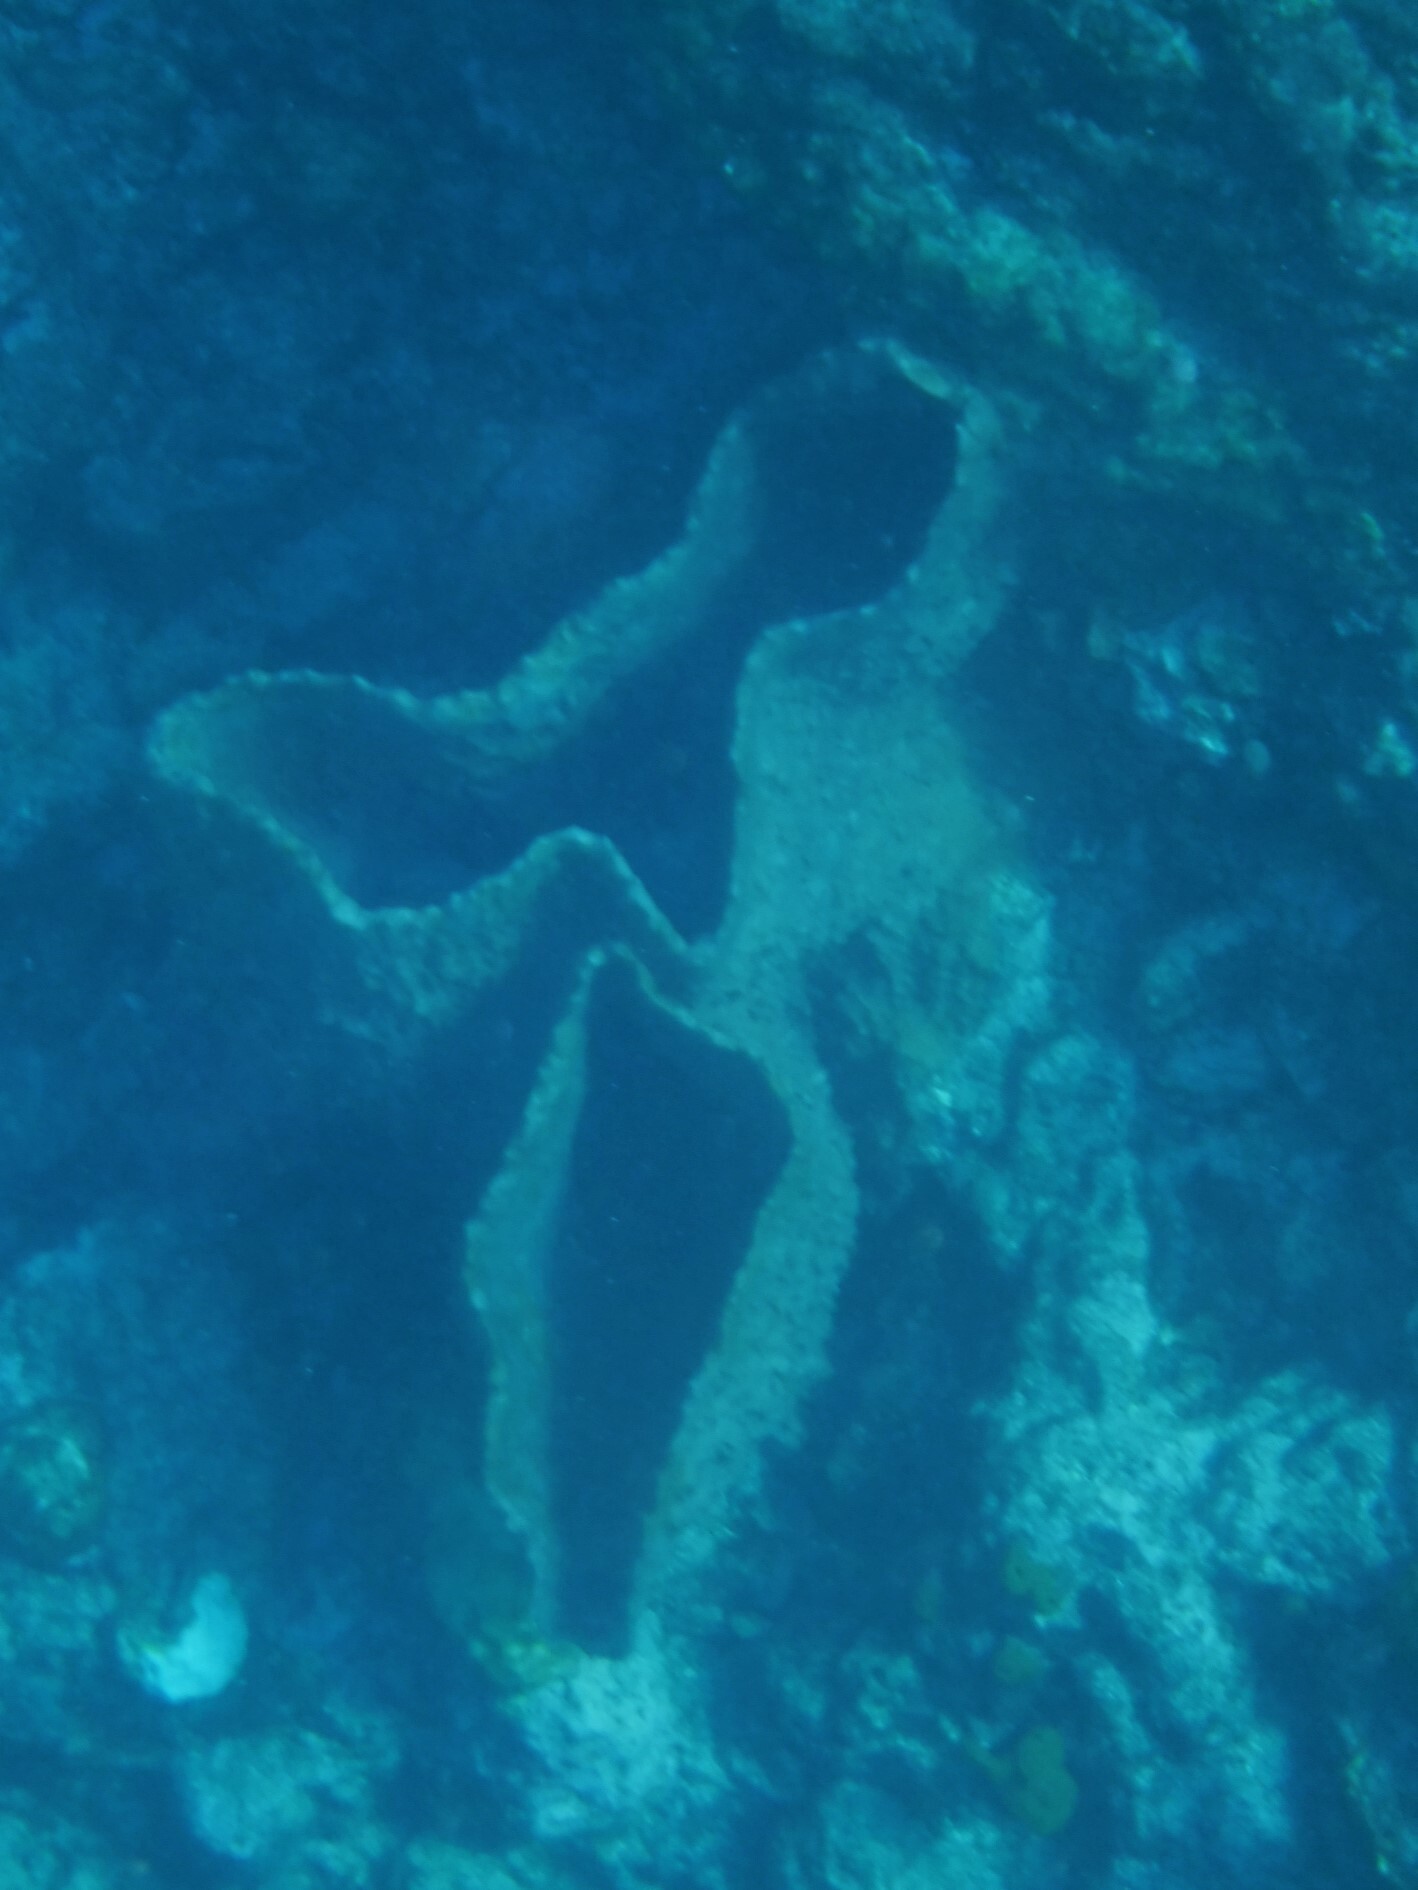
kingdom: Animalia
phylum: Porifera
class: Demospongiae
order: Haplosclerida
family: Petrosiidae
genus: Xestospongia
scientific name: Xestospongia muta
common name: Giant barrel sponge
